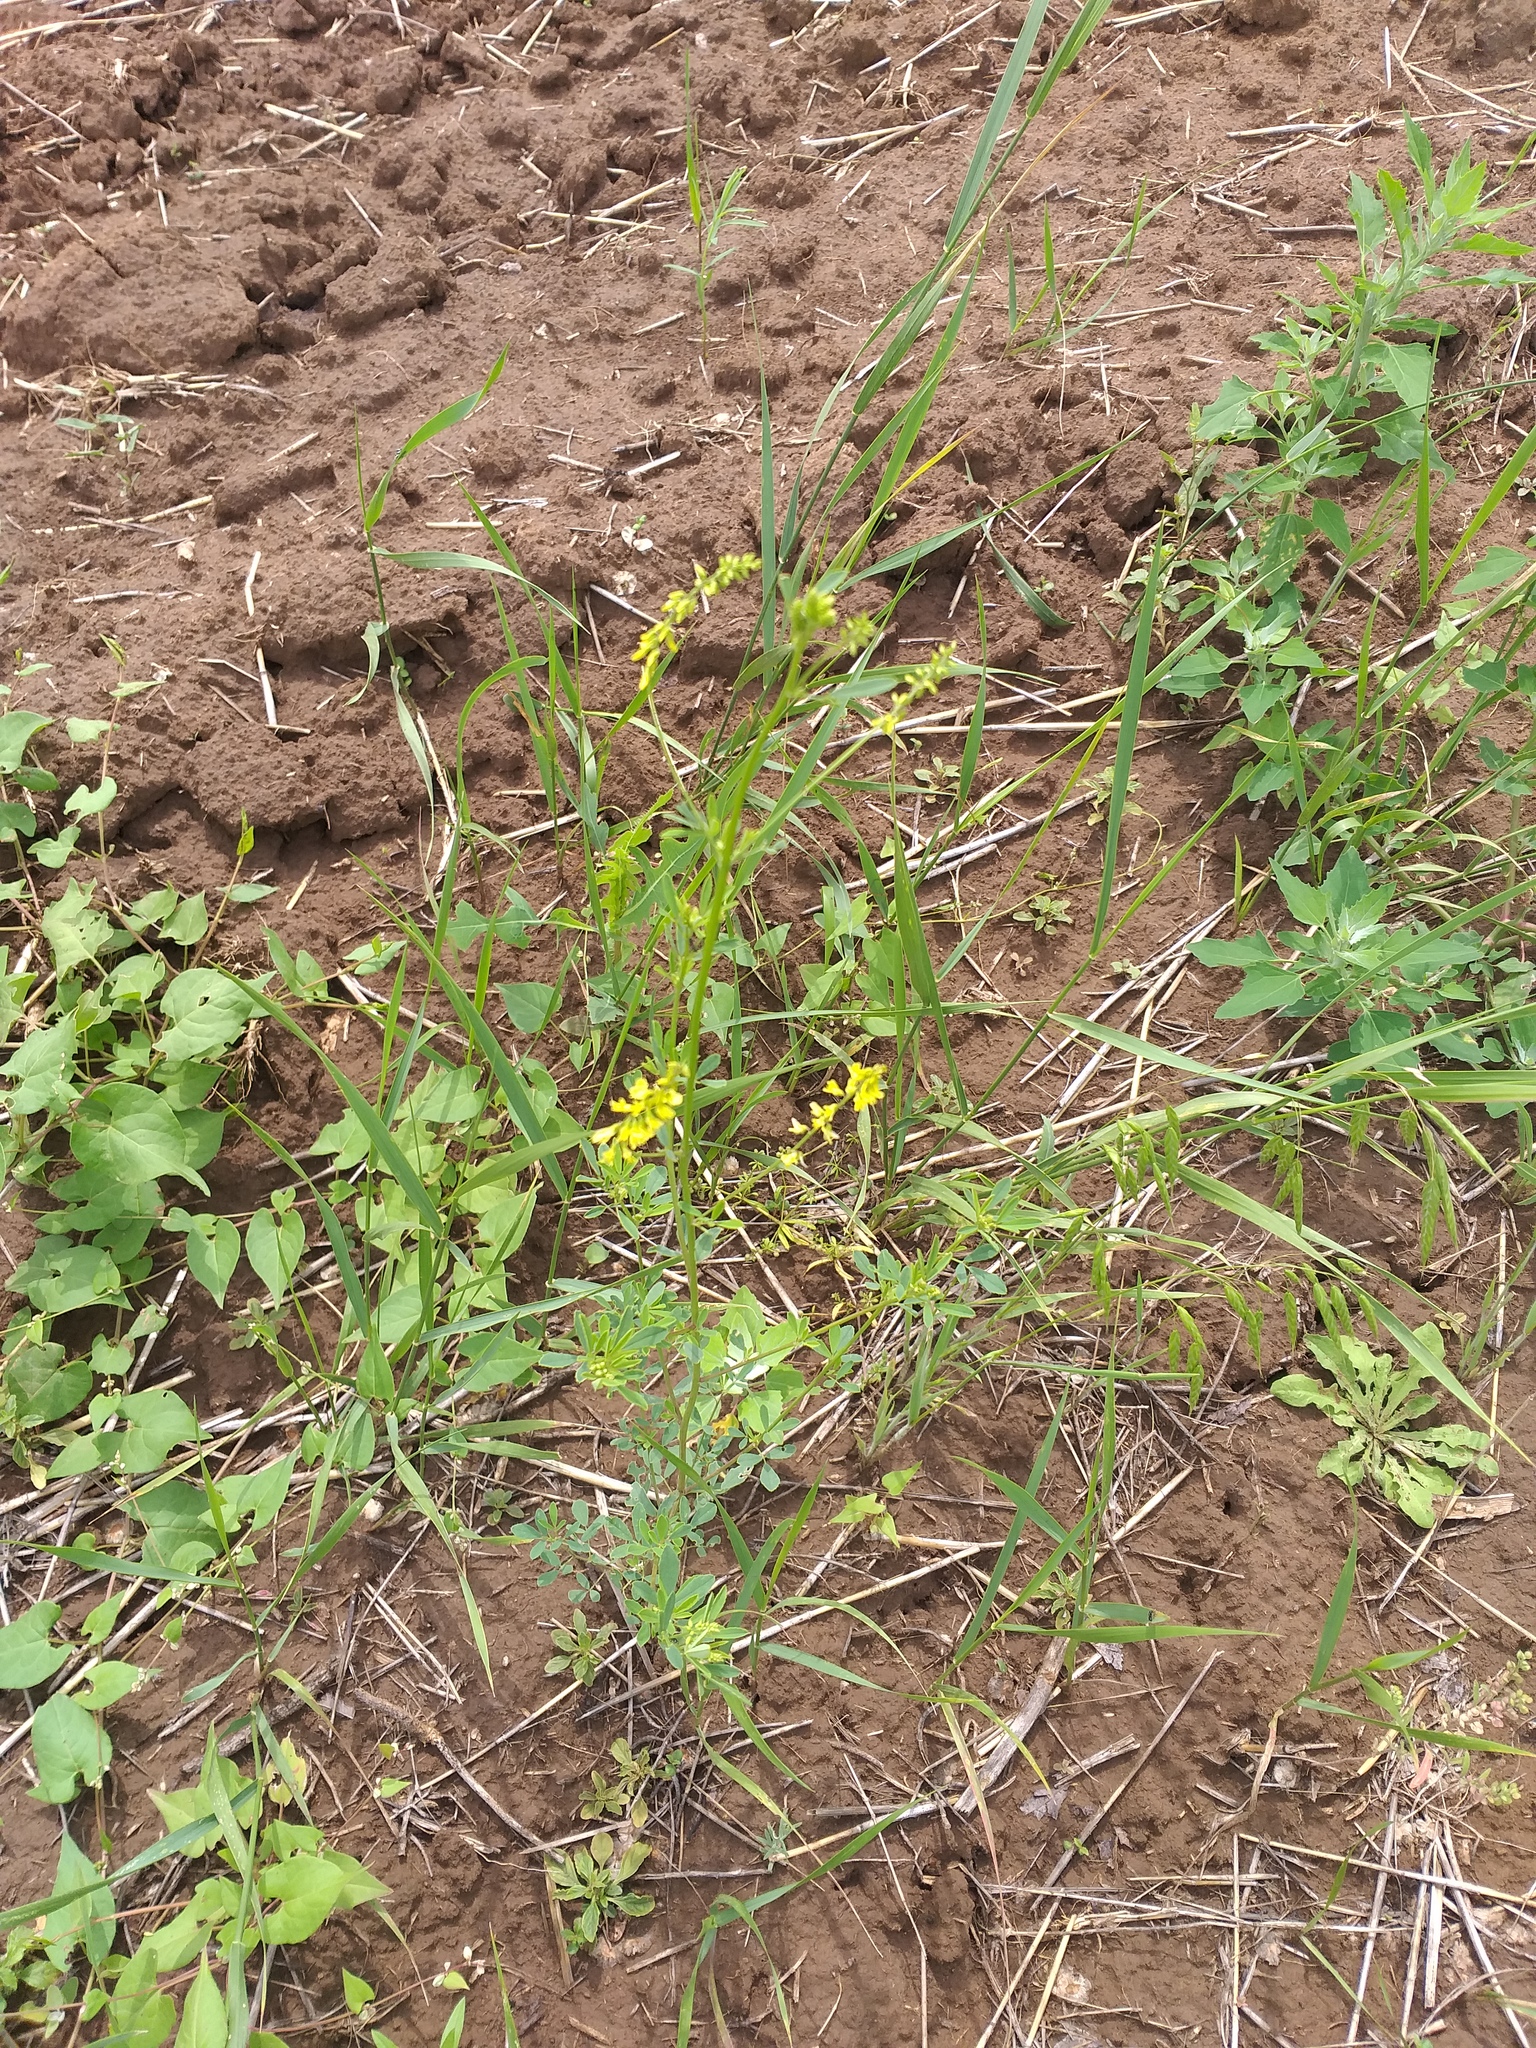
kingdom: Plantae
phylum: Tracheophyta
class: Magnoliopsida
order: Fabales
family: Fabaceae
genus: Melilotus
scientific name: Melilotus officinalis
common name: Sweetclover
